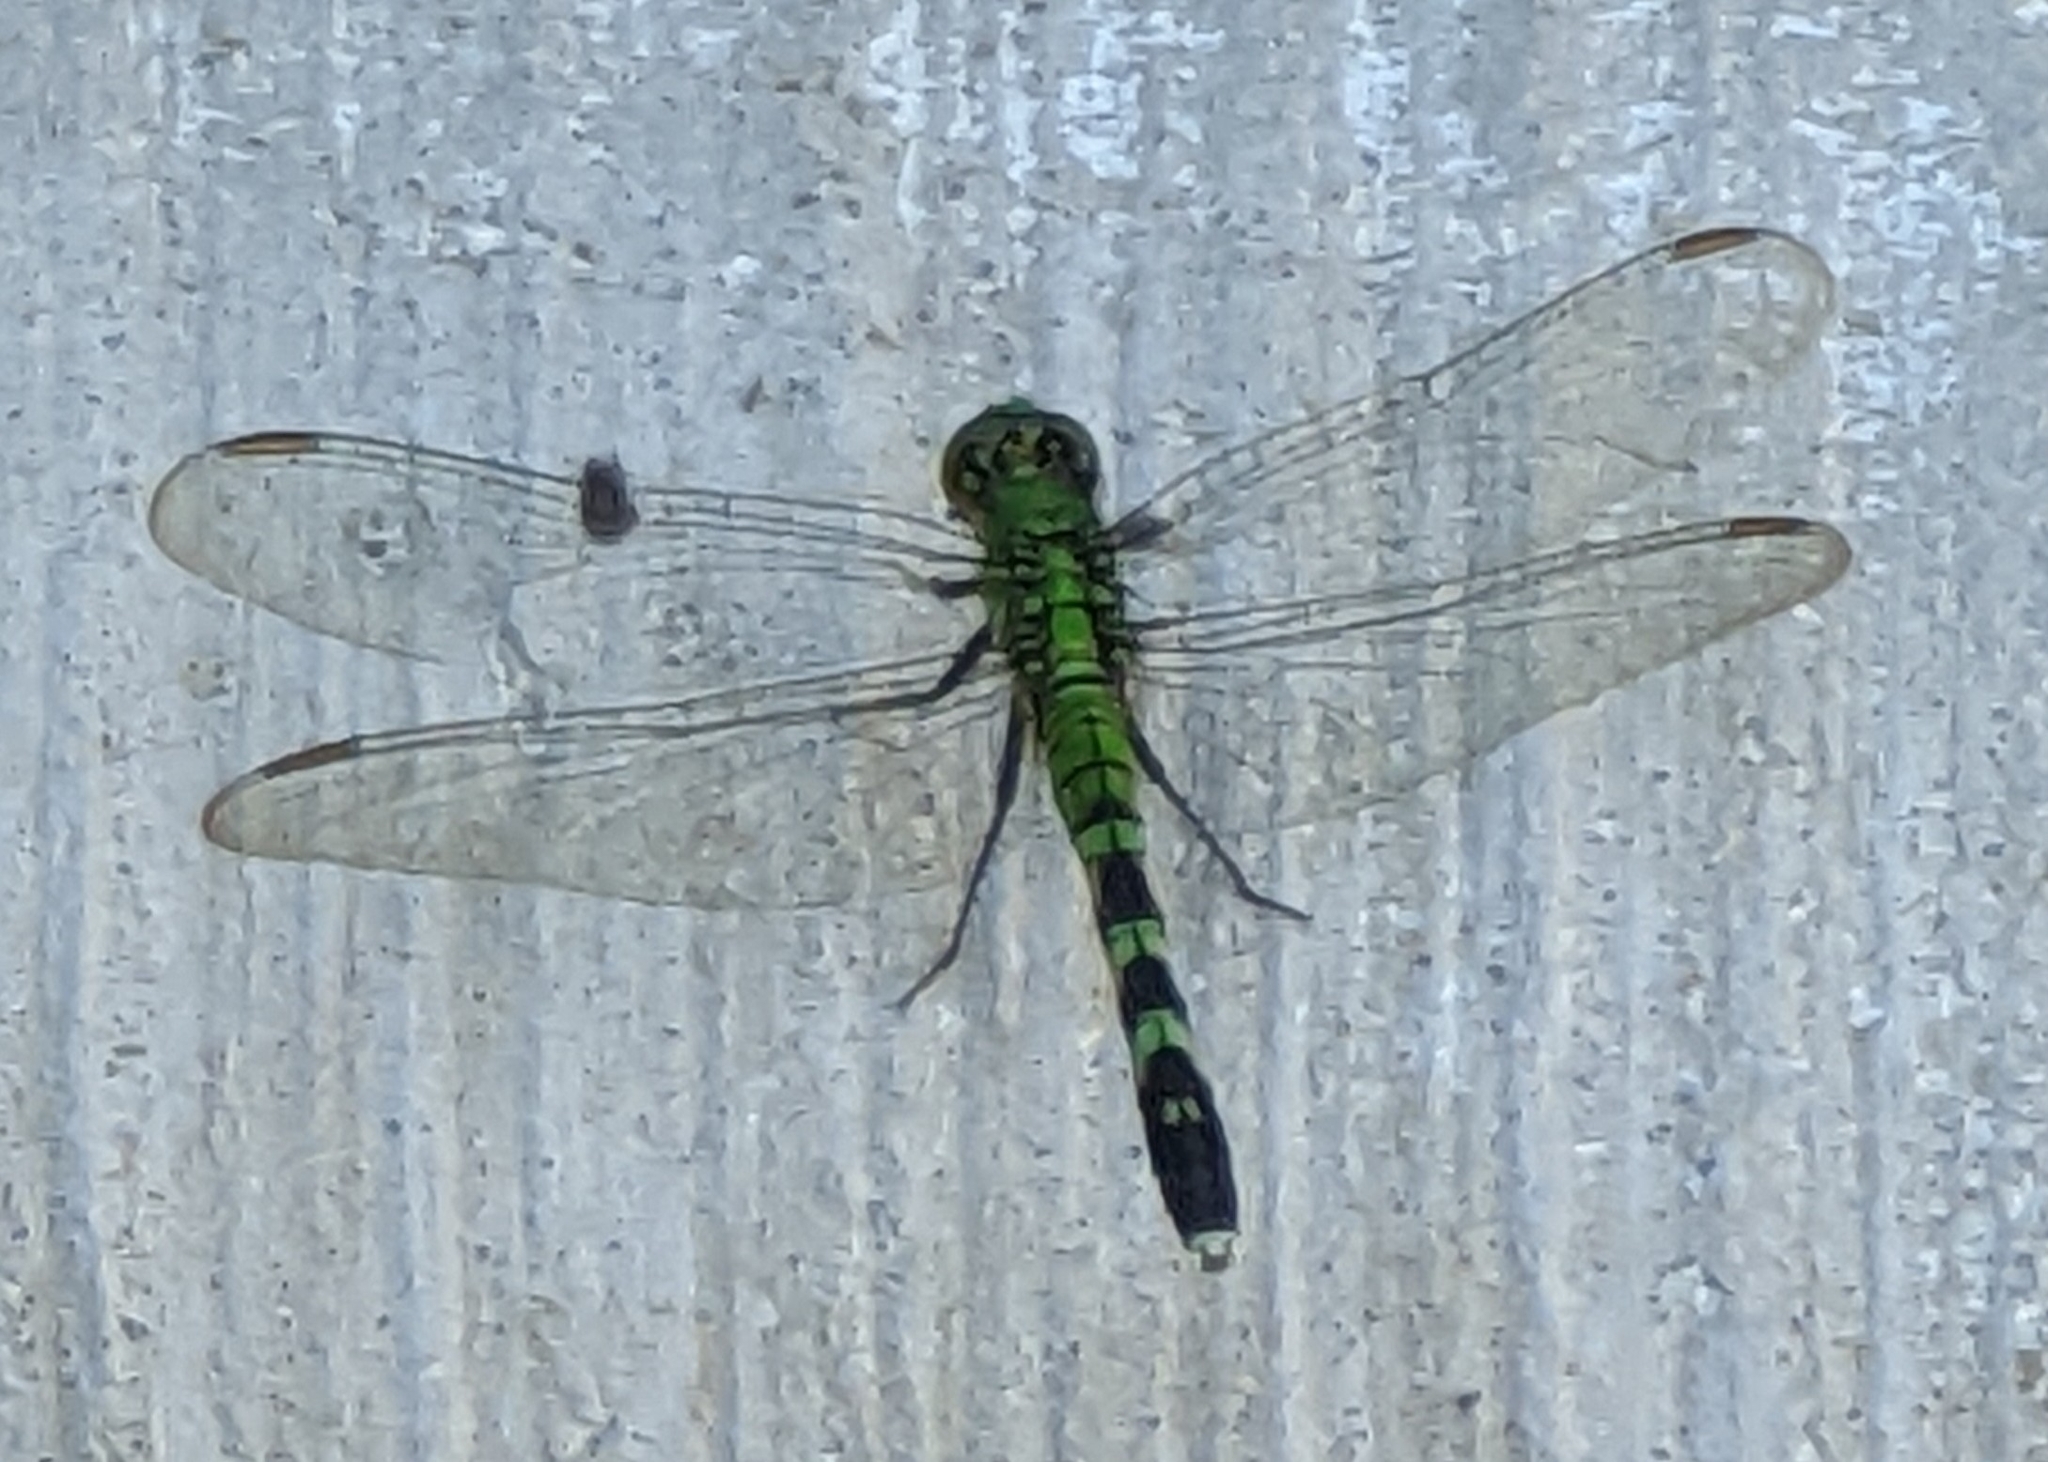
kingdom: Animalia
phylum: Arthropoda
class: Insecta
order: Odonata
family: Libellulidae
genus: Erythemis
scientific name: Erythemis simplicicollis
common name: Eastern pondhawk
